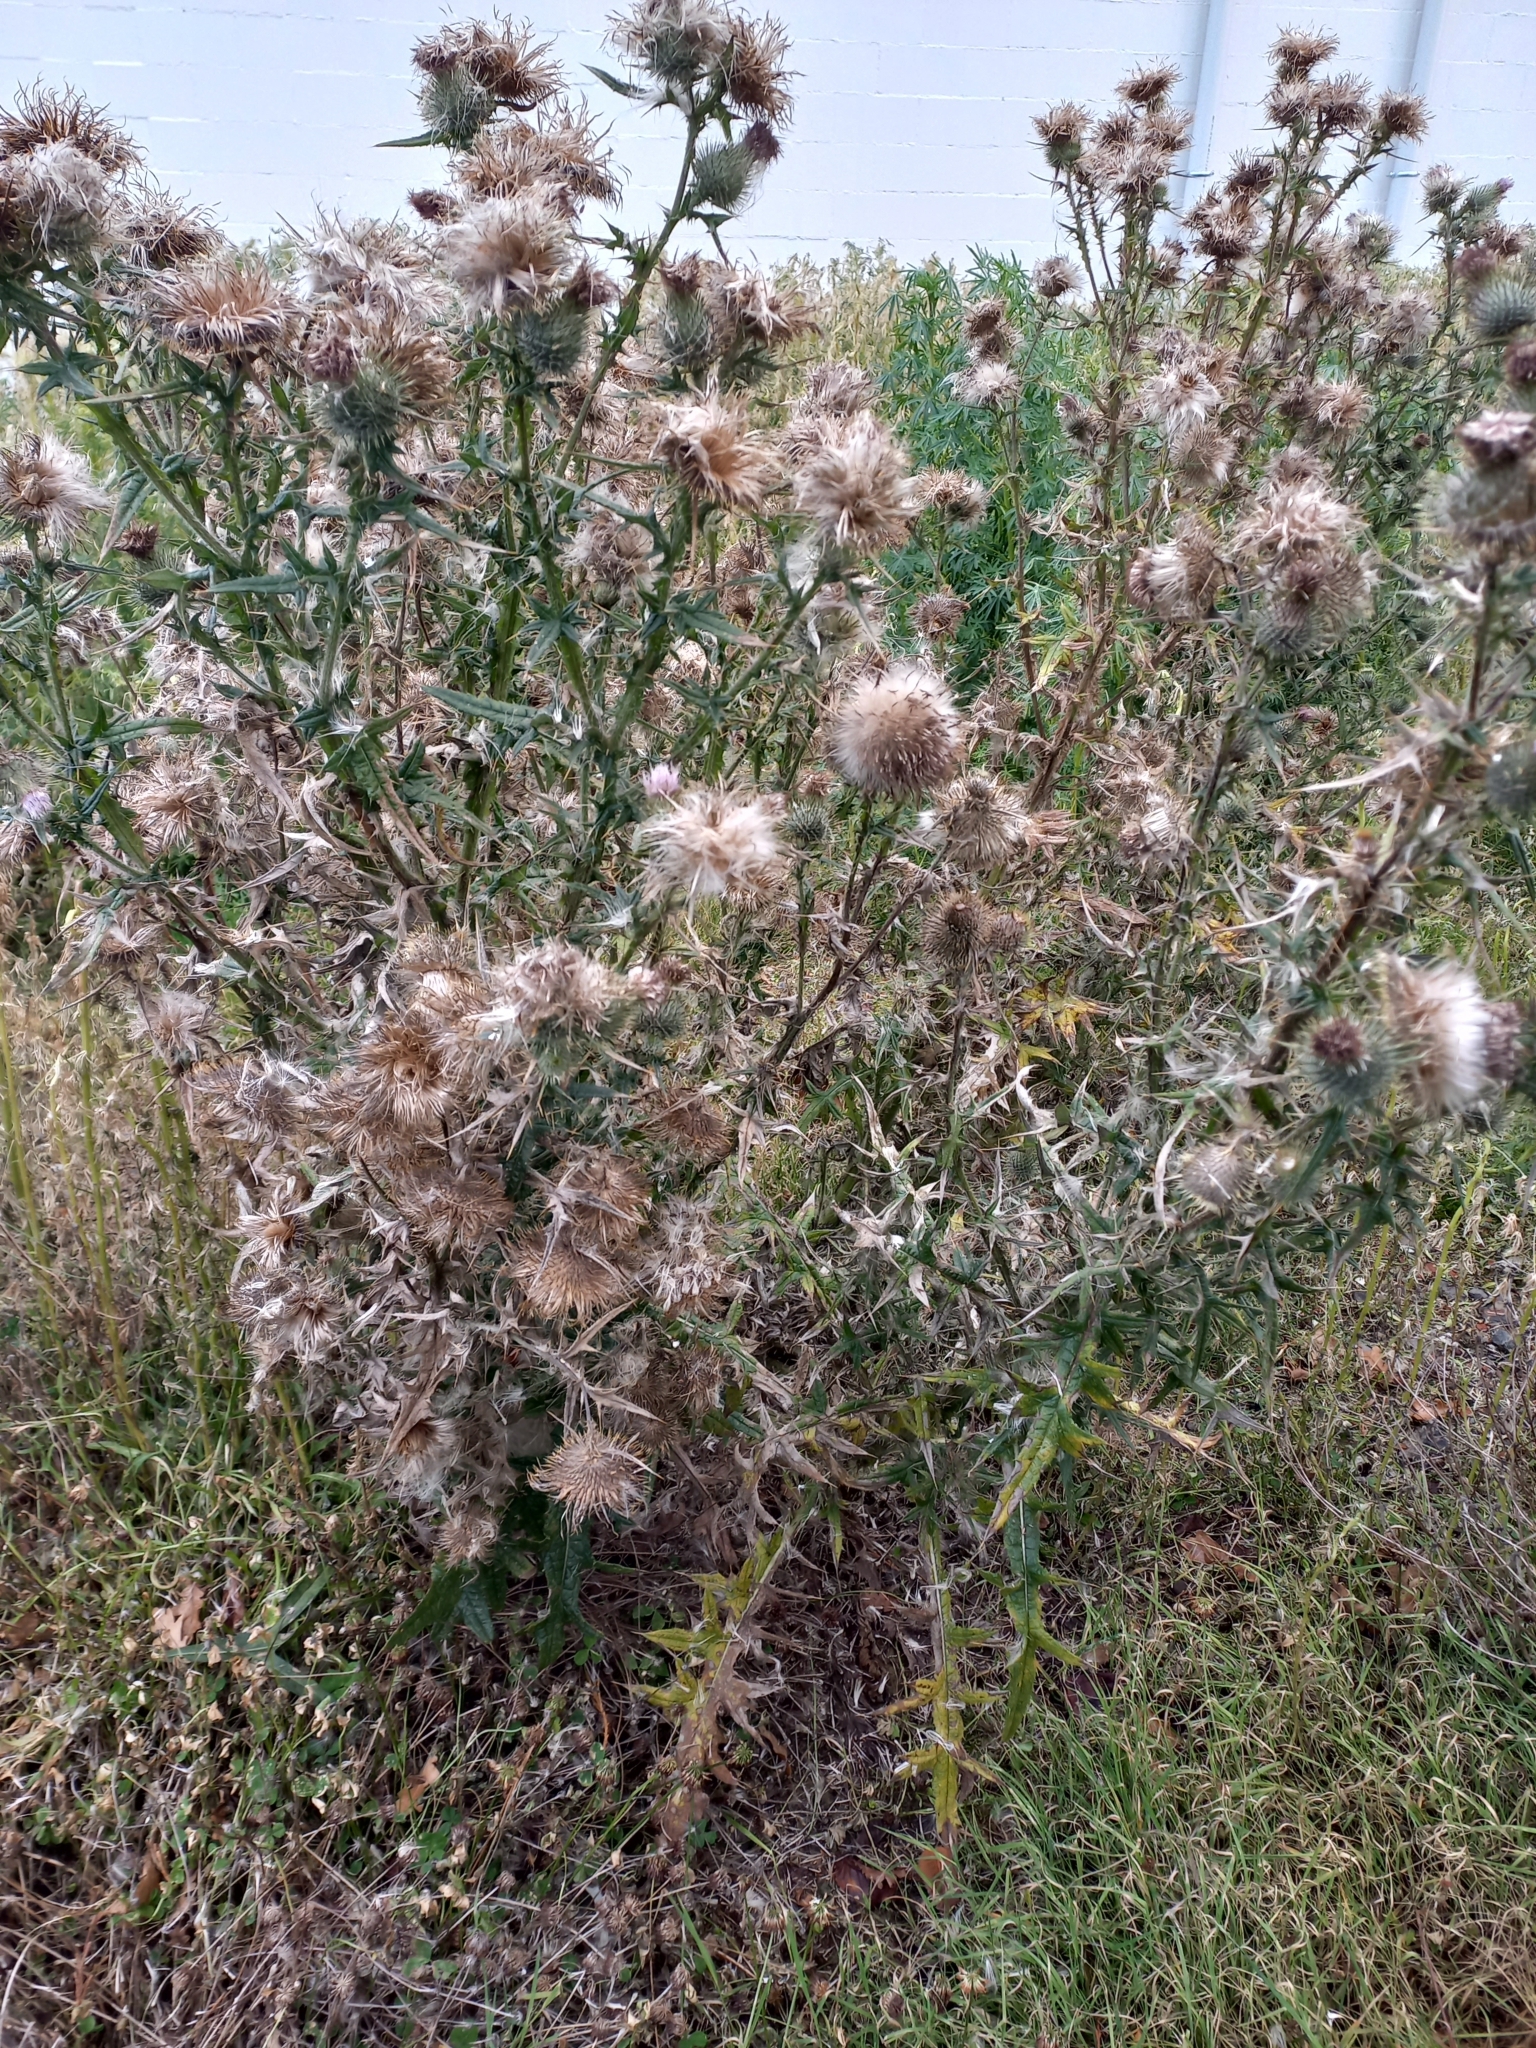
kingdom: Plantae
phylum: Tracheophyta
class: Magnoliopsida
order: Asterales
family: Asteraceae
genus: Cirsium
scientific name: Cirsium vulgare
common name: Bull thistle
